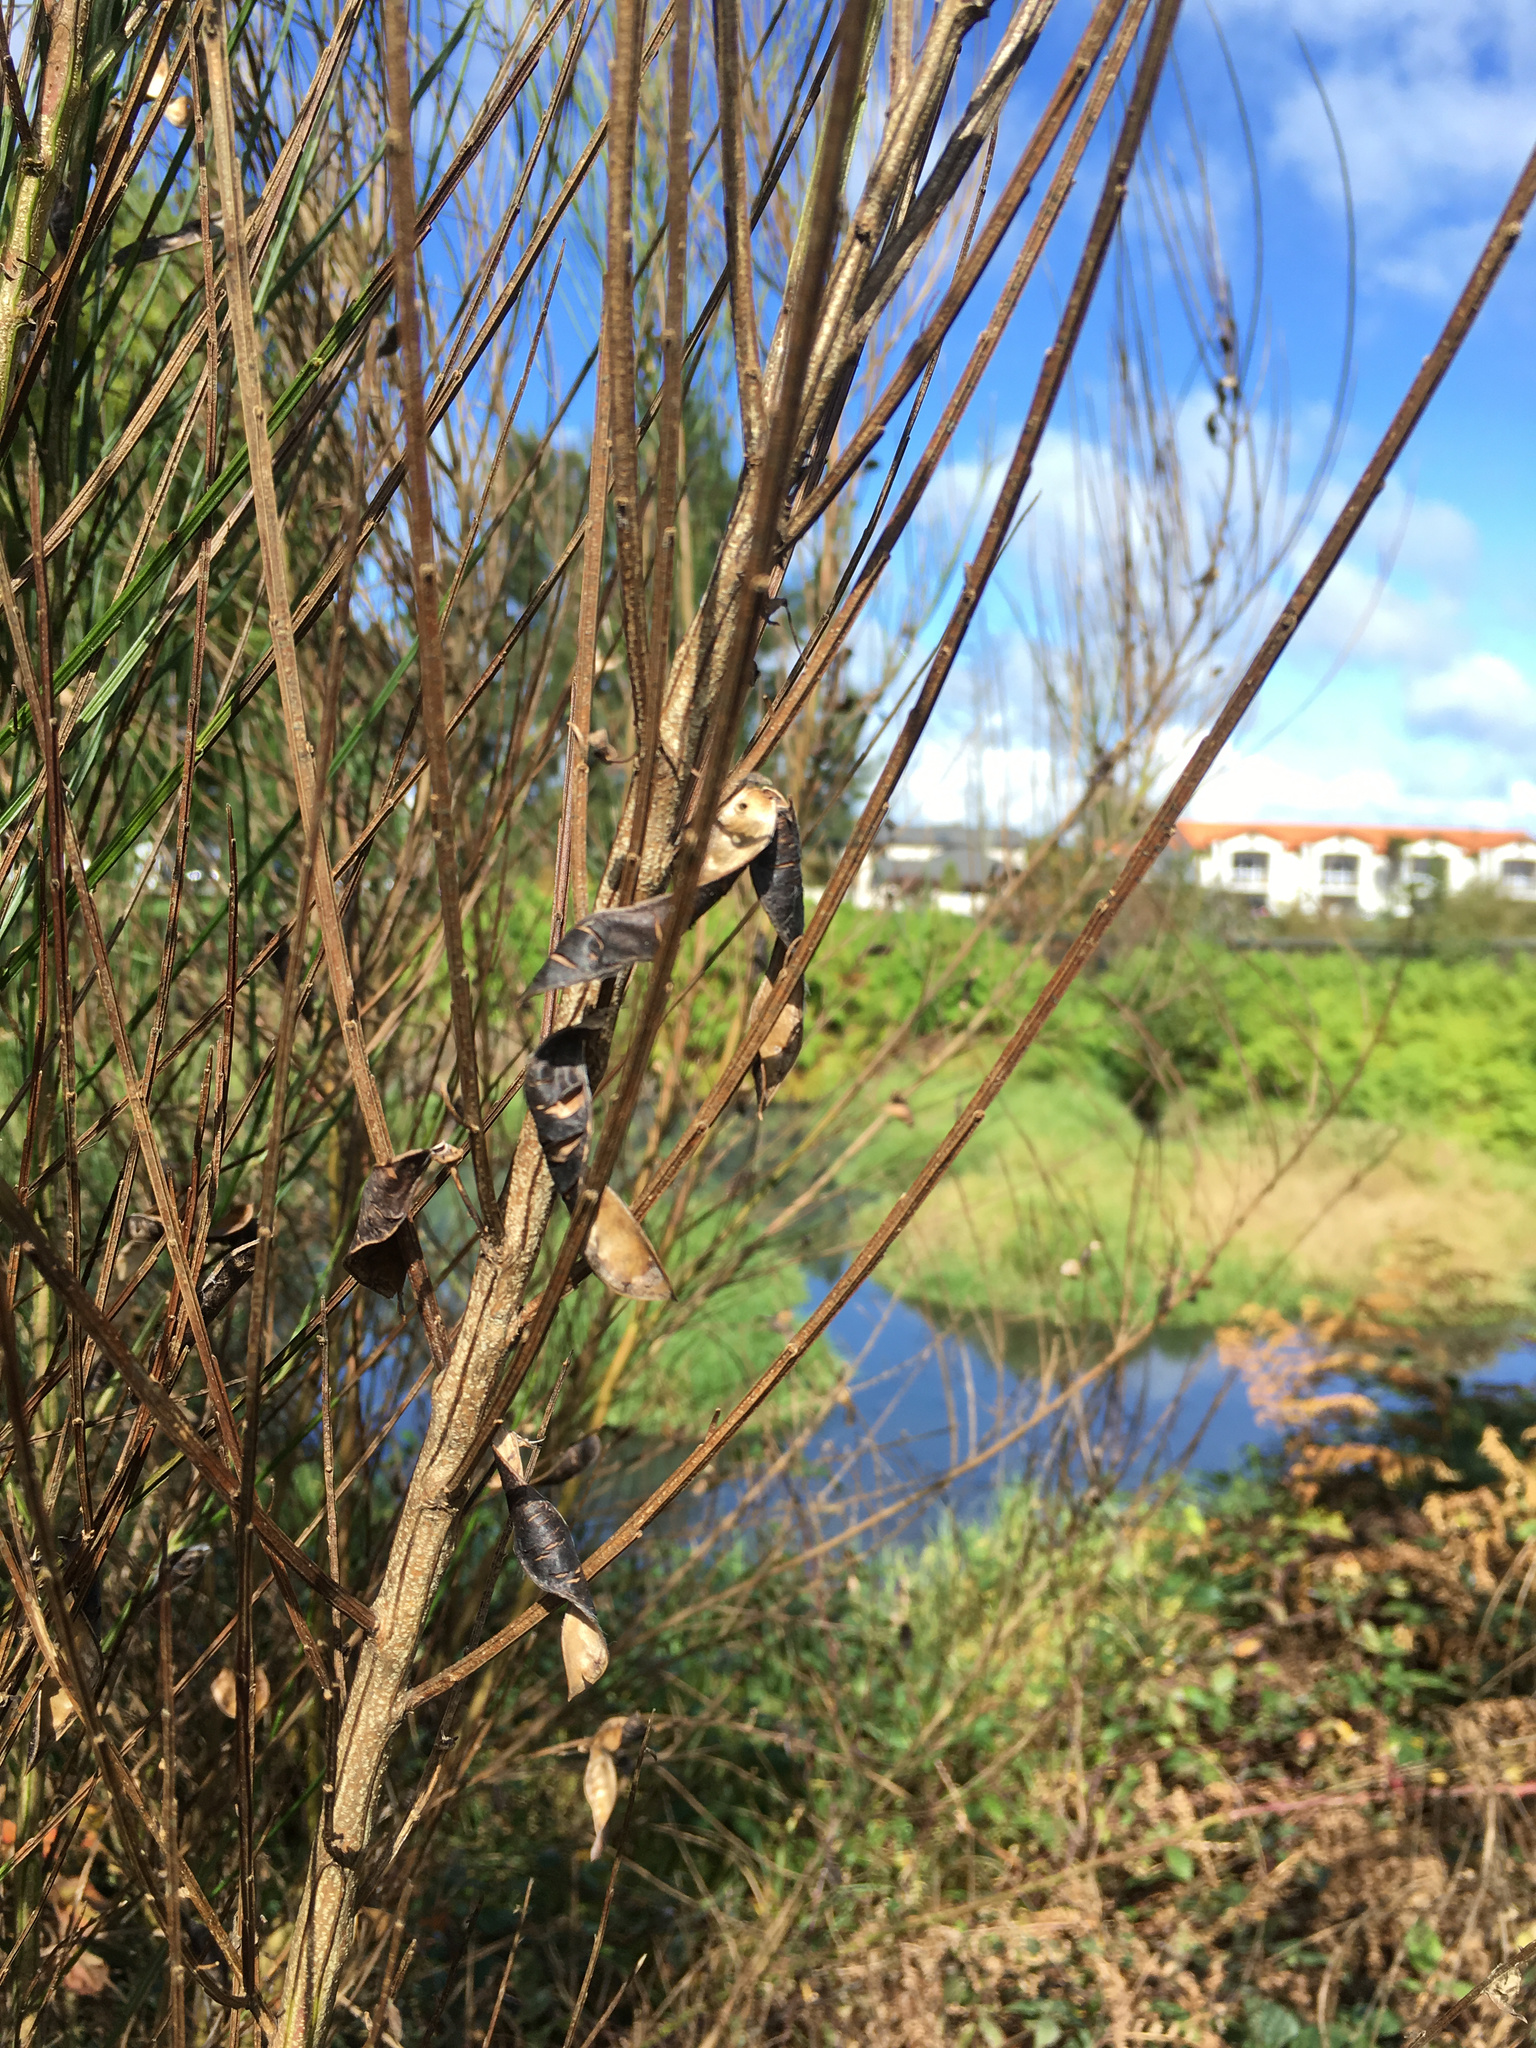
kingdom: Plantae
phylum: Tracheophyta
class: Magnoliopsida
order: Fabales
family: Fabaceae
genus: Cytisus
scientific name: Cytisus scoparius
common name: Scotch broom
